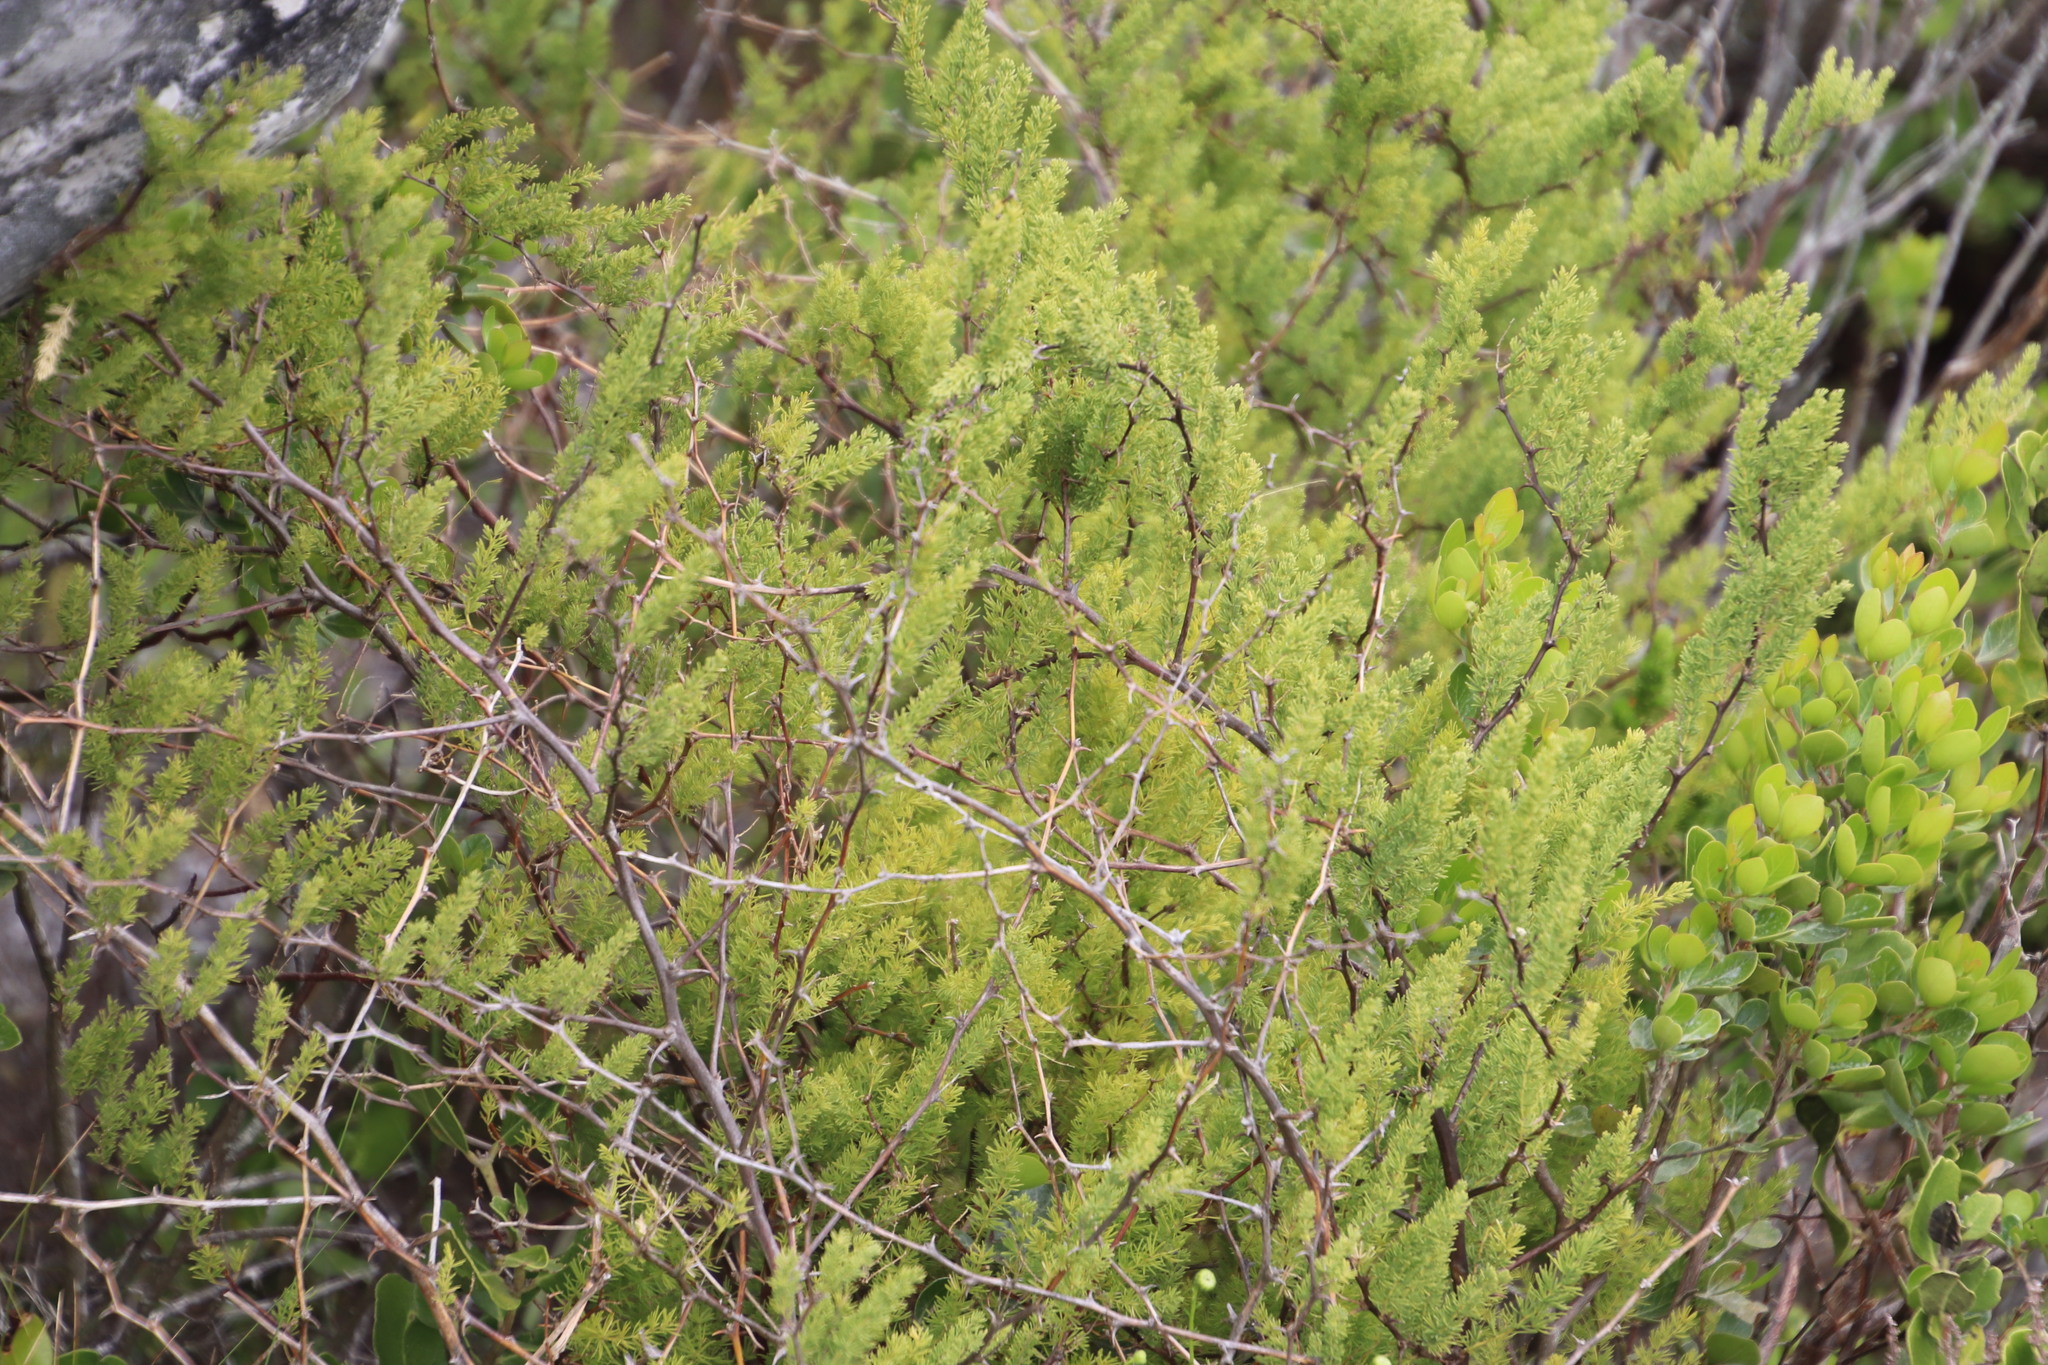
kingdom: Plantae
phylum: Tracheophyta
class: Liliopsida
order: Asparagales
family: Asparagaceae
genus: Asparagus
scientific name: Asparagus rubicundus
